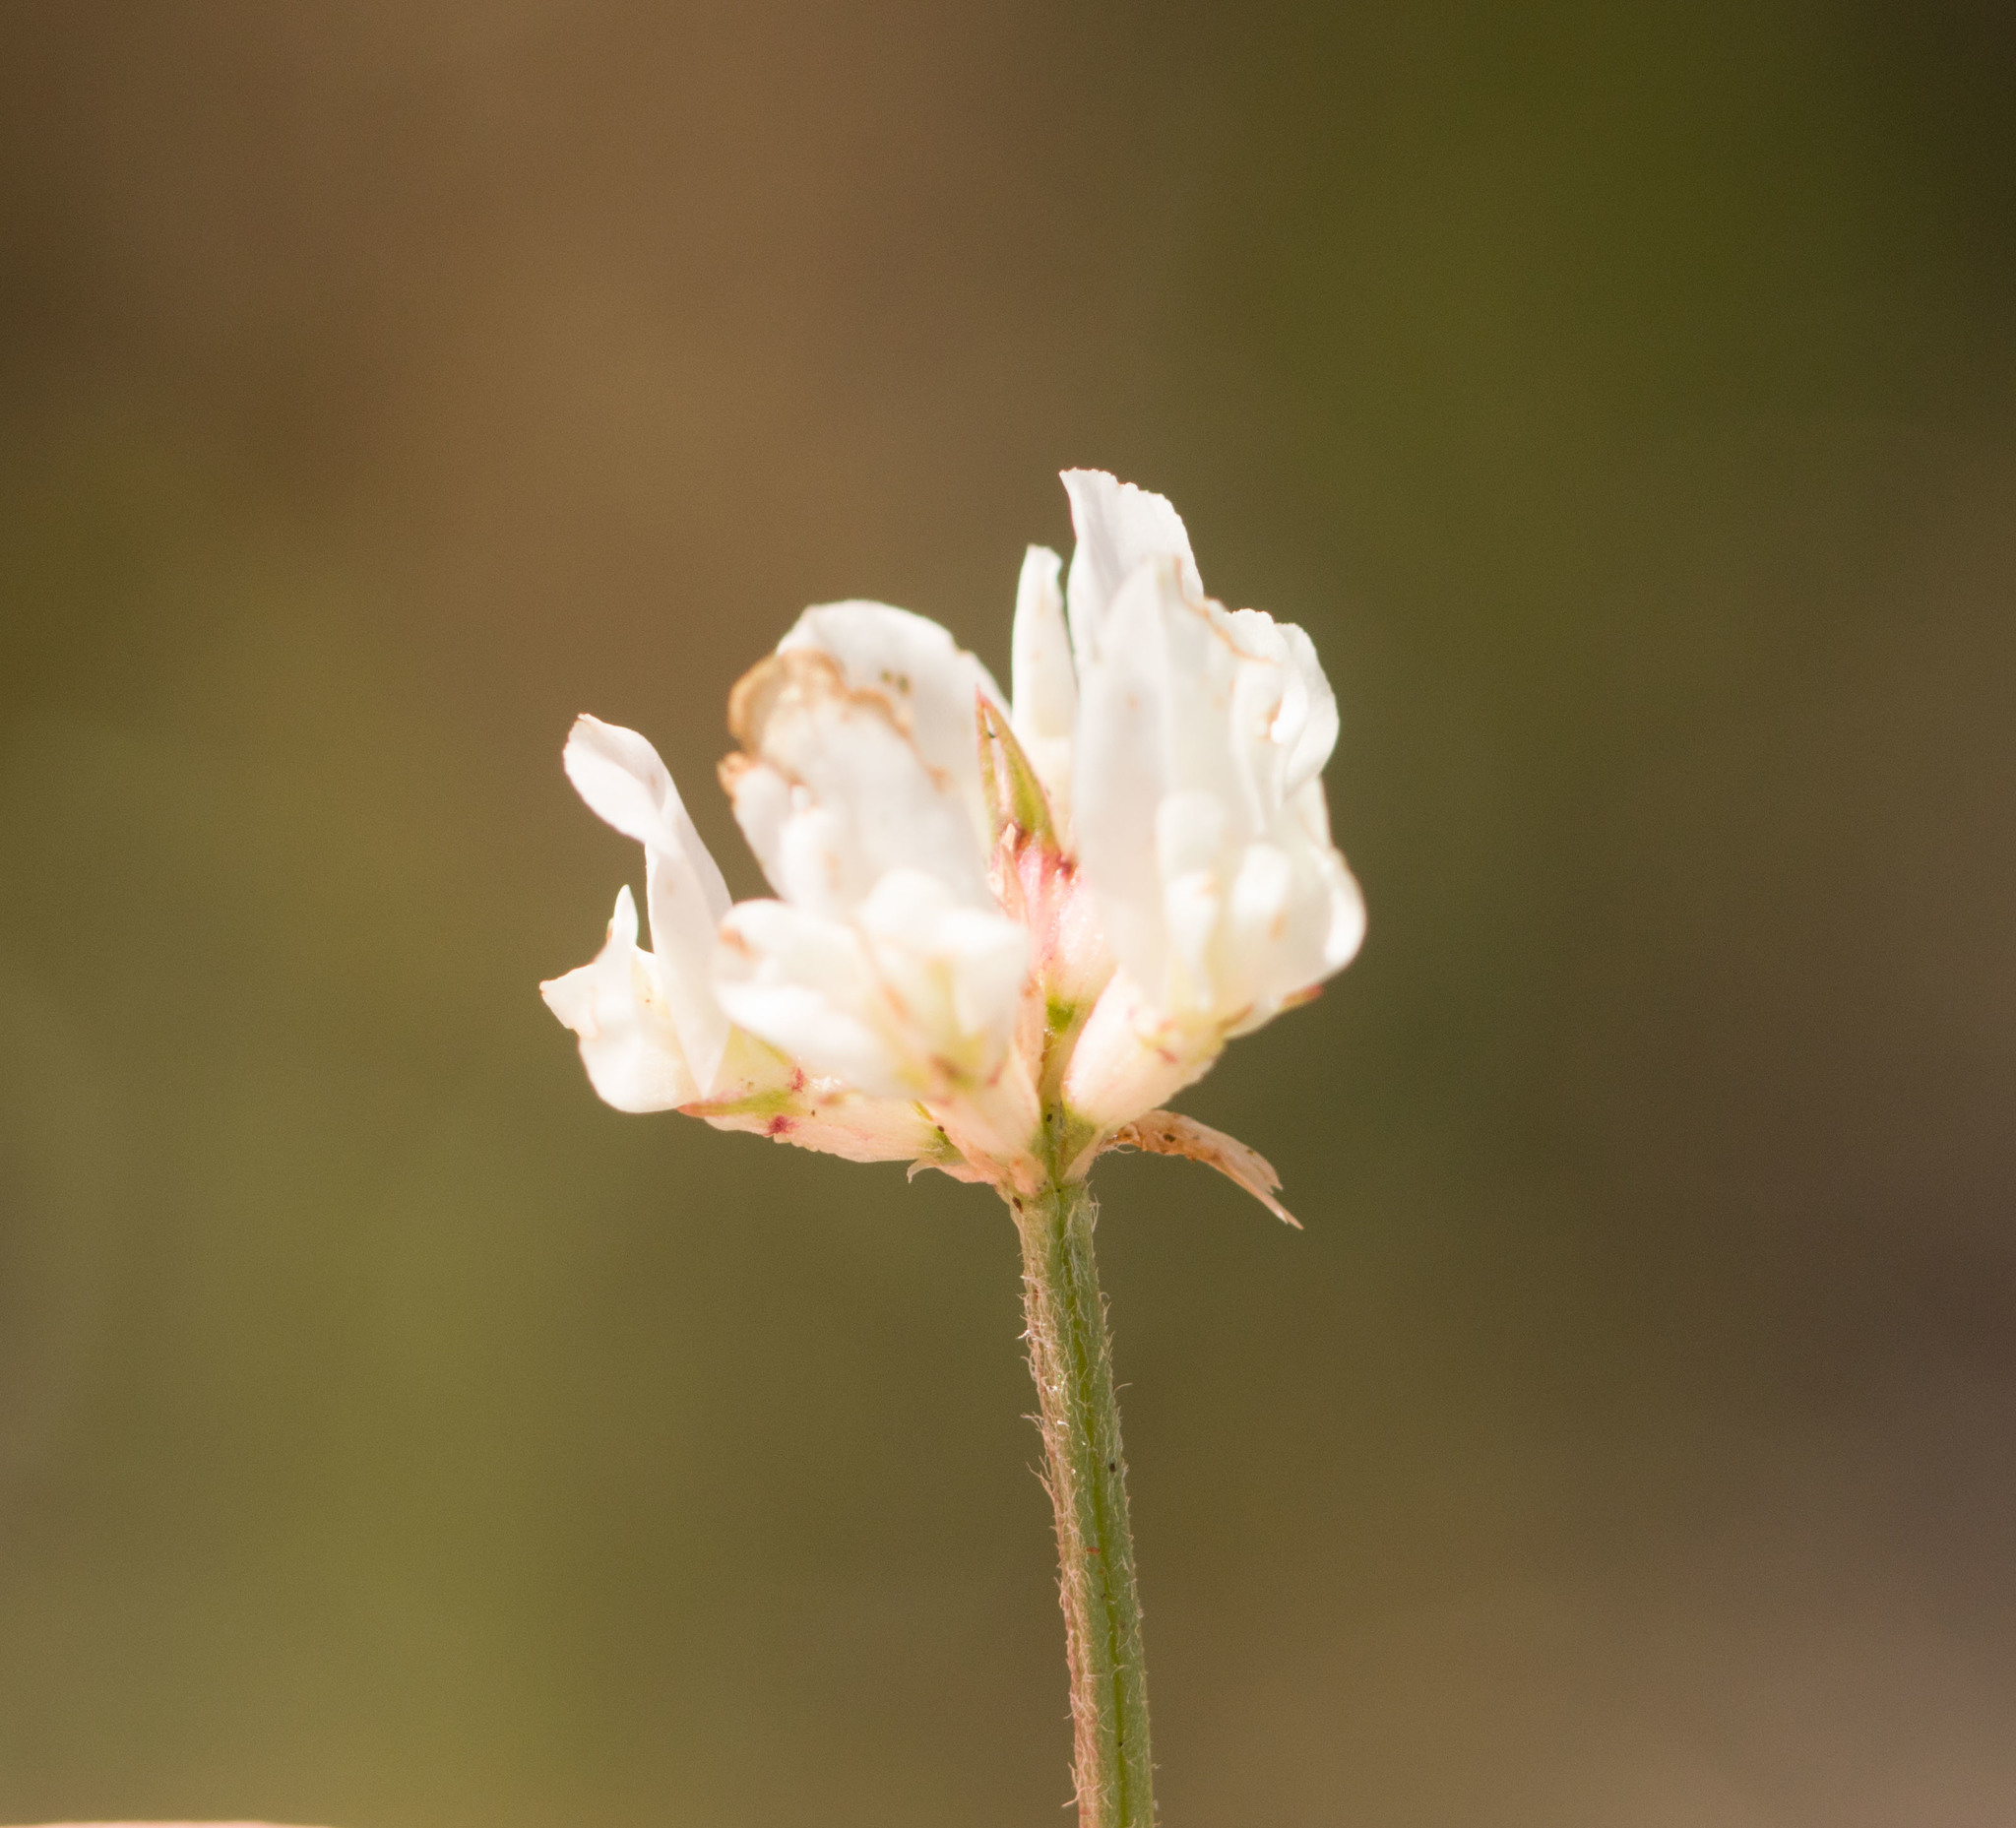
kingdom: Plantae
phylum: Tracheophyta
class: Magnoliopsida
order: Fabales
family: Fabaceae
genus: Trifolium
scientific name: Trifolium repens
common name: White clover
